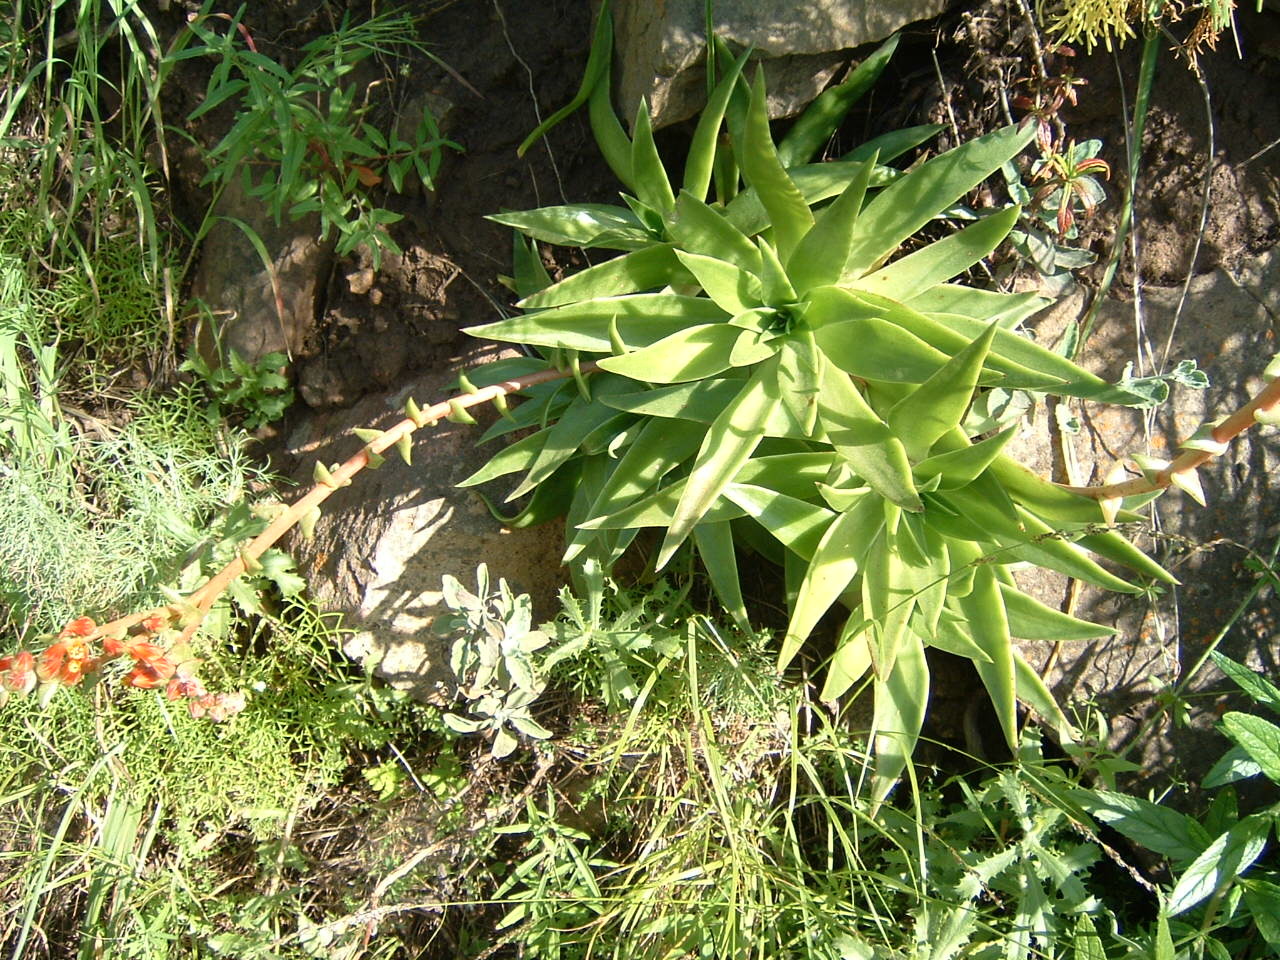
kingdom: Plantae
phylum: Tracheophyta
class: Magnoliopsida
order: Saxifragales
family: Crassulaceae
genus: Dudleya
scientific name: Dudleya lanceolata
